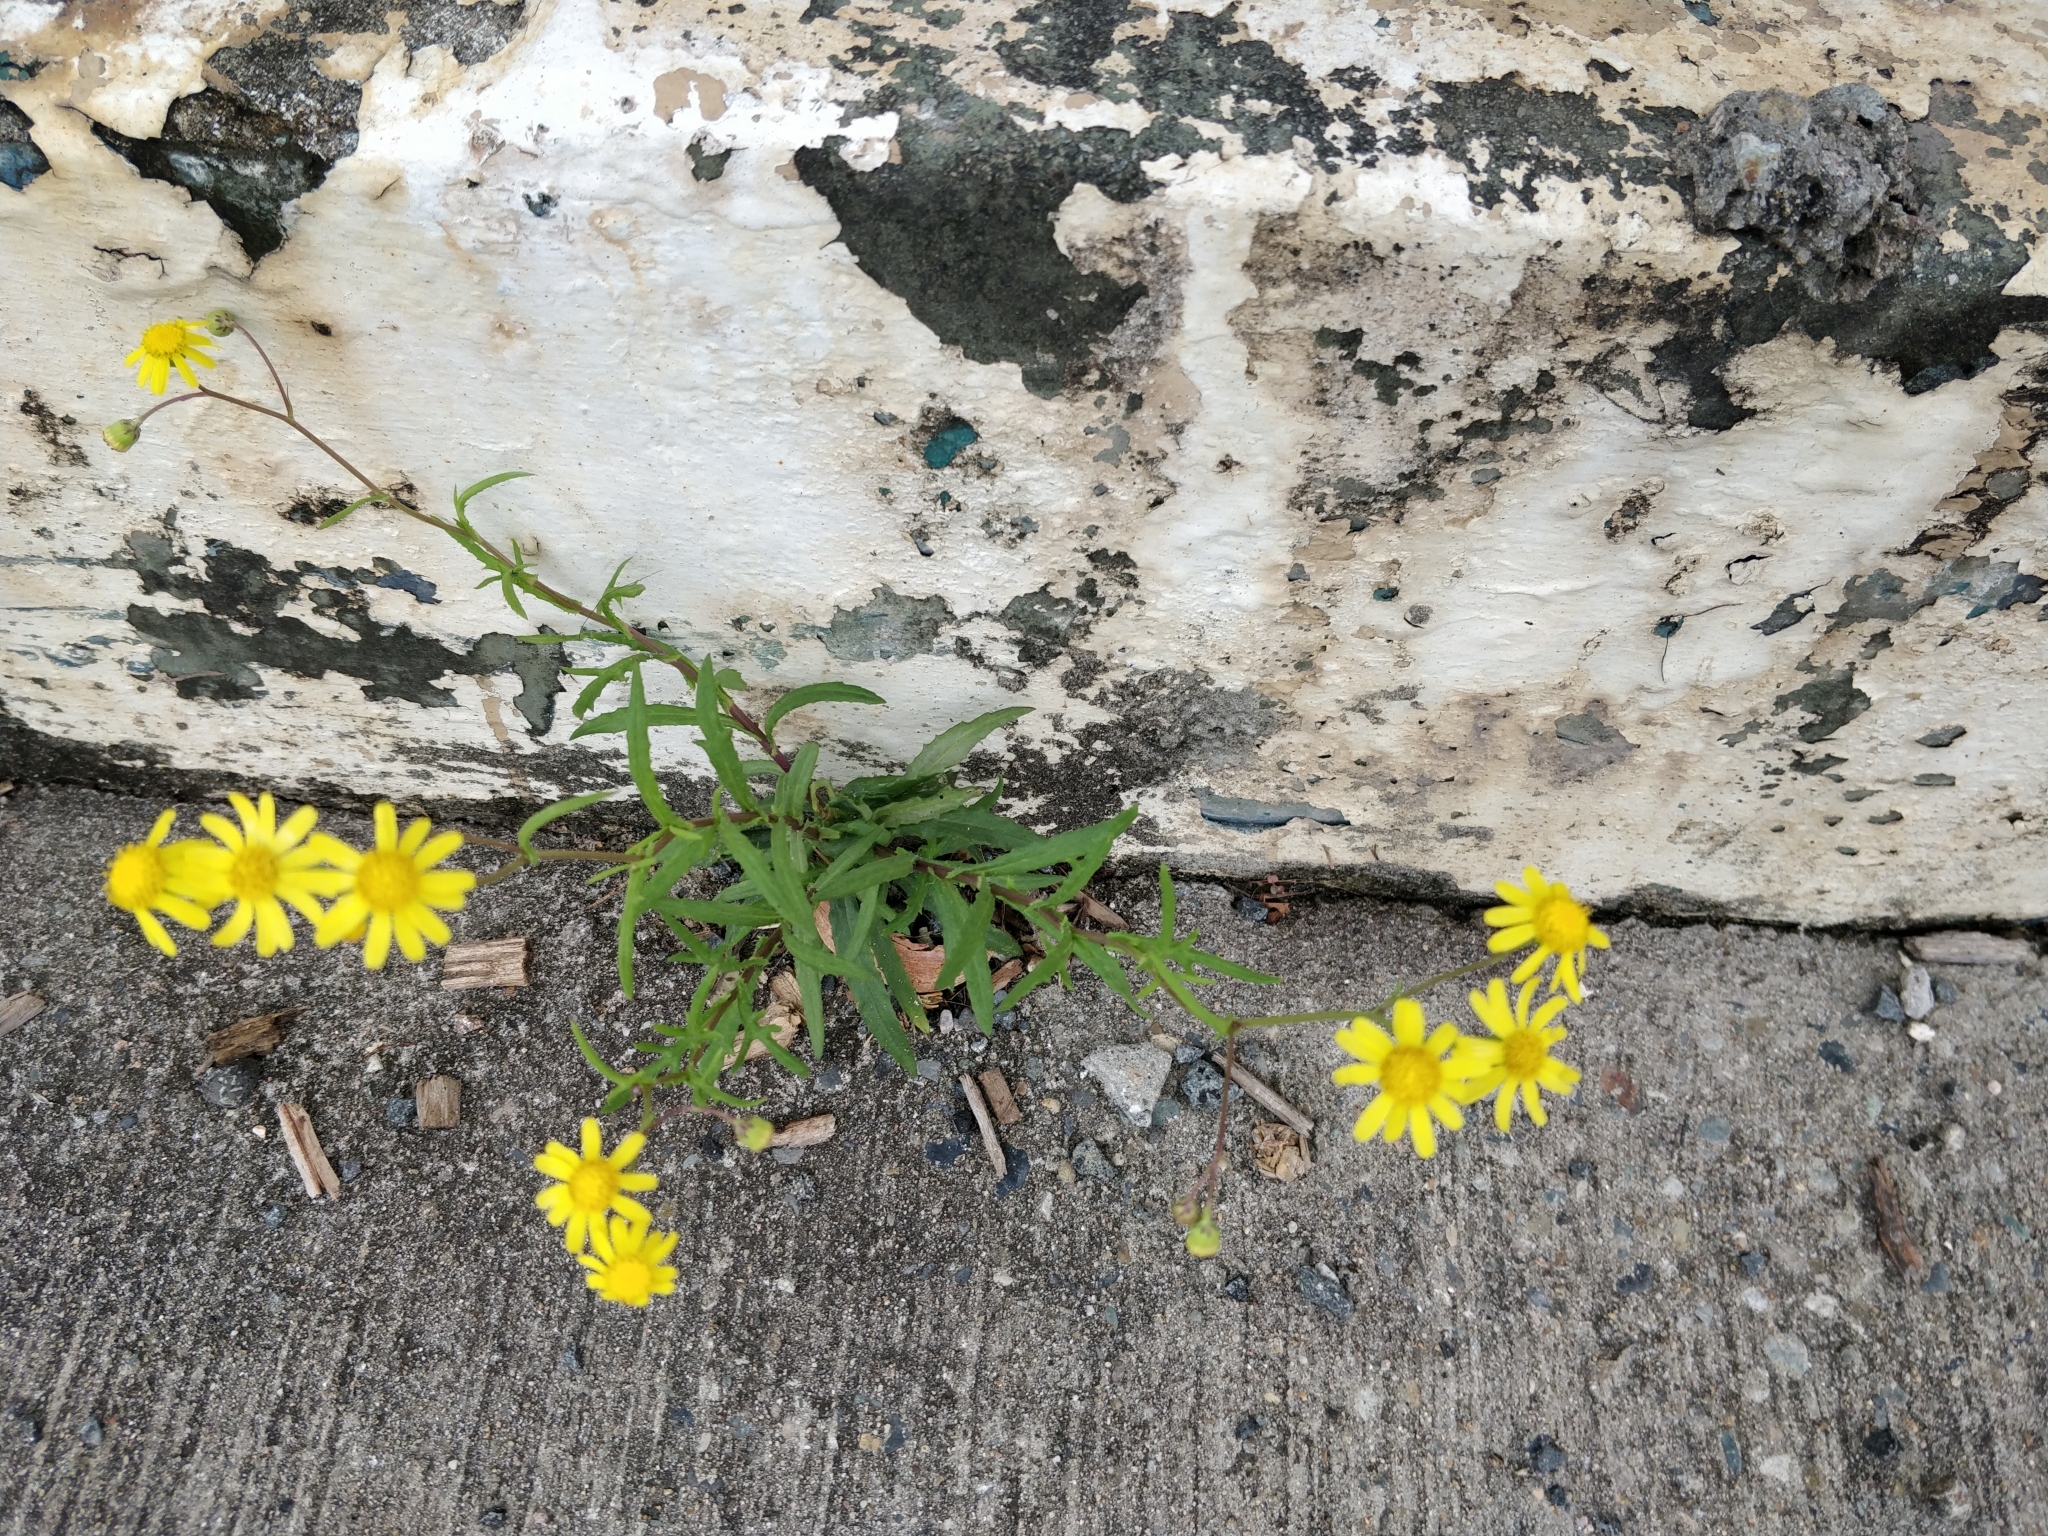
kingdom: Plantae
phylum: Tracheophyta
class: Magnoliopsida
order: Asterales
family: Asteraceae
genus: Senecio
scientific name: Senecio madagascariensis
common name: Madagascar ragwort
